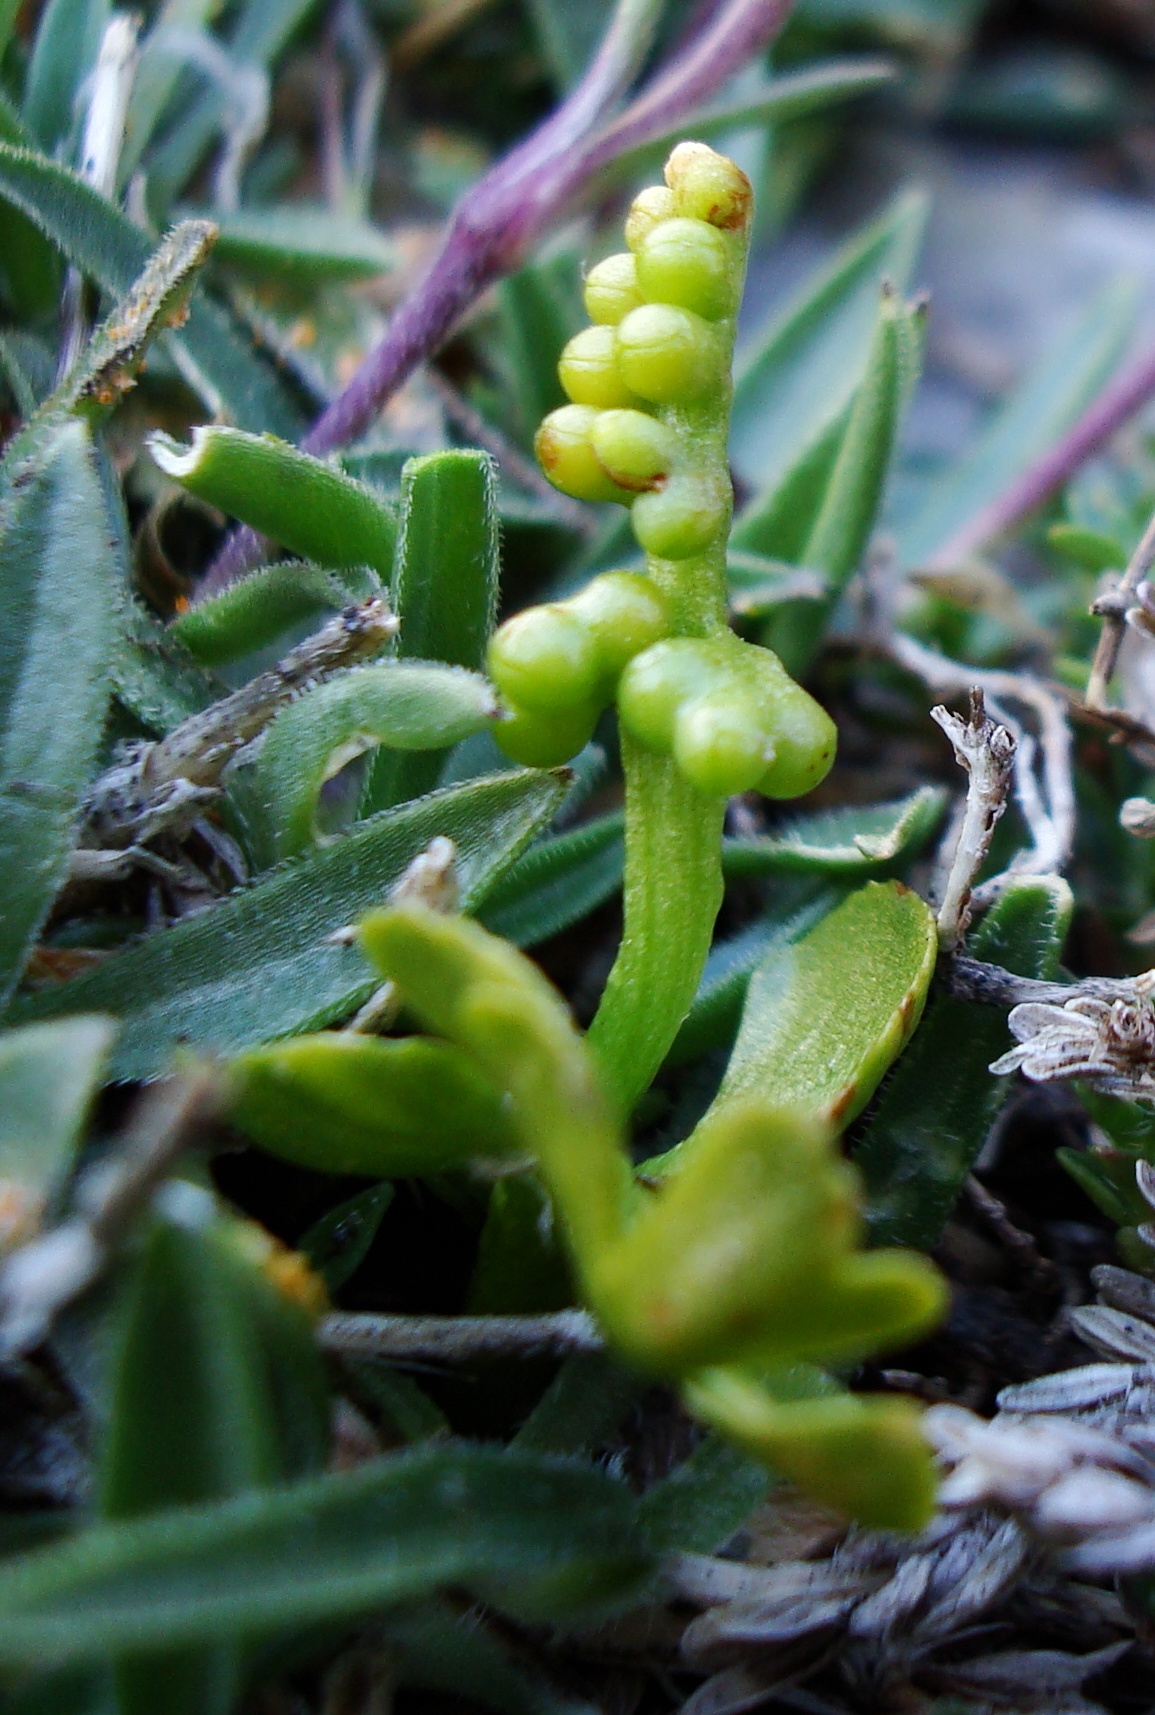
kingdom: Plantae
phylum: Tracheophyta
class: Polypodiopsida
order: Ophioglossales
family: Ophioglossaceae
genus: Botrychium
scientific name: Botrychium lunaria
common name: Moonwort
